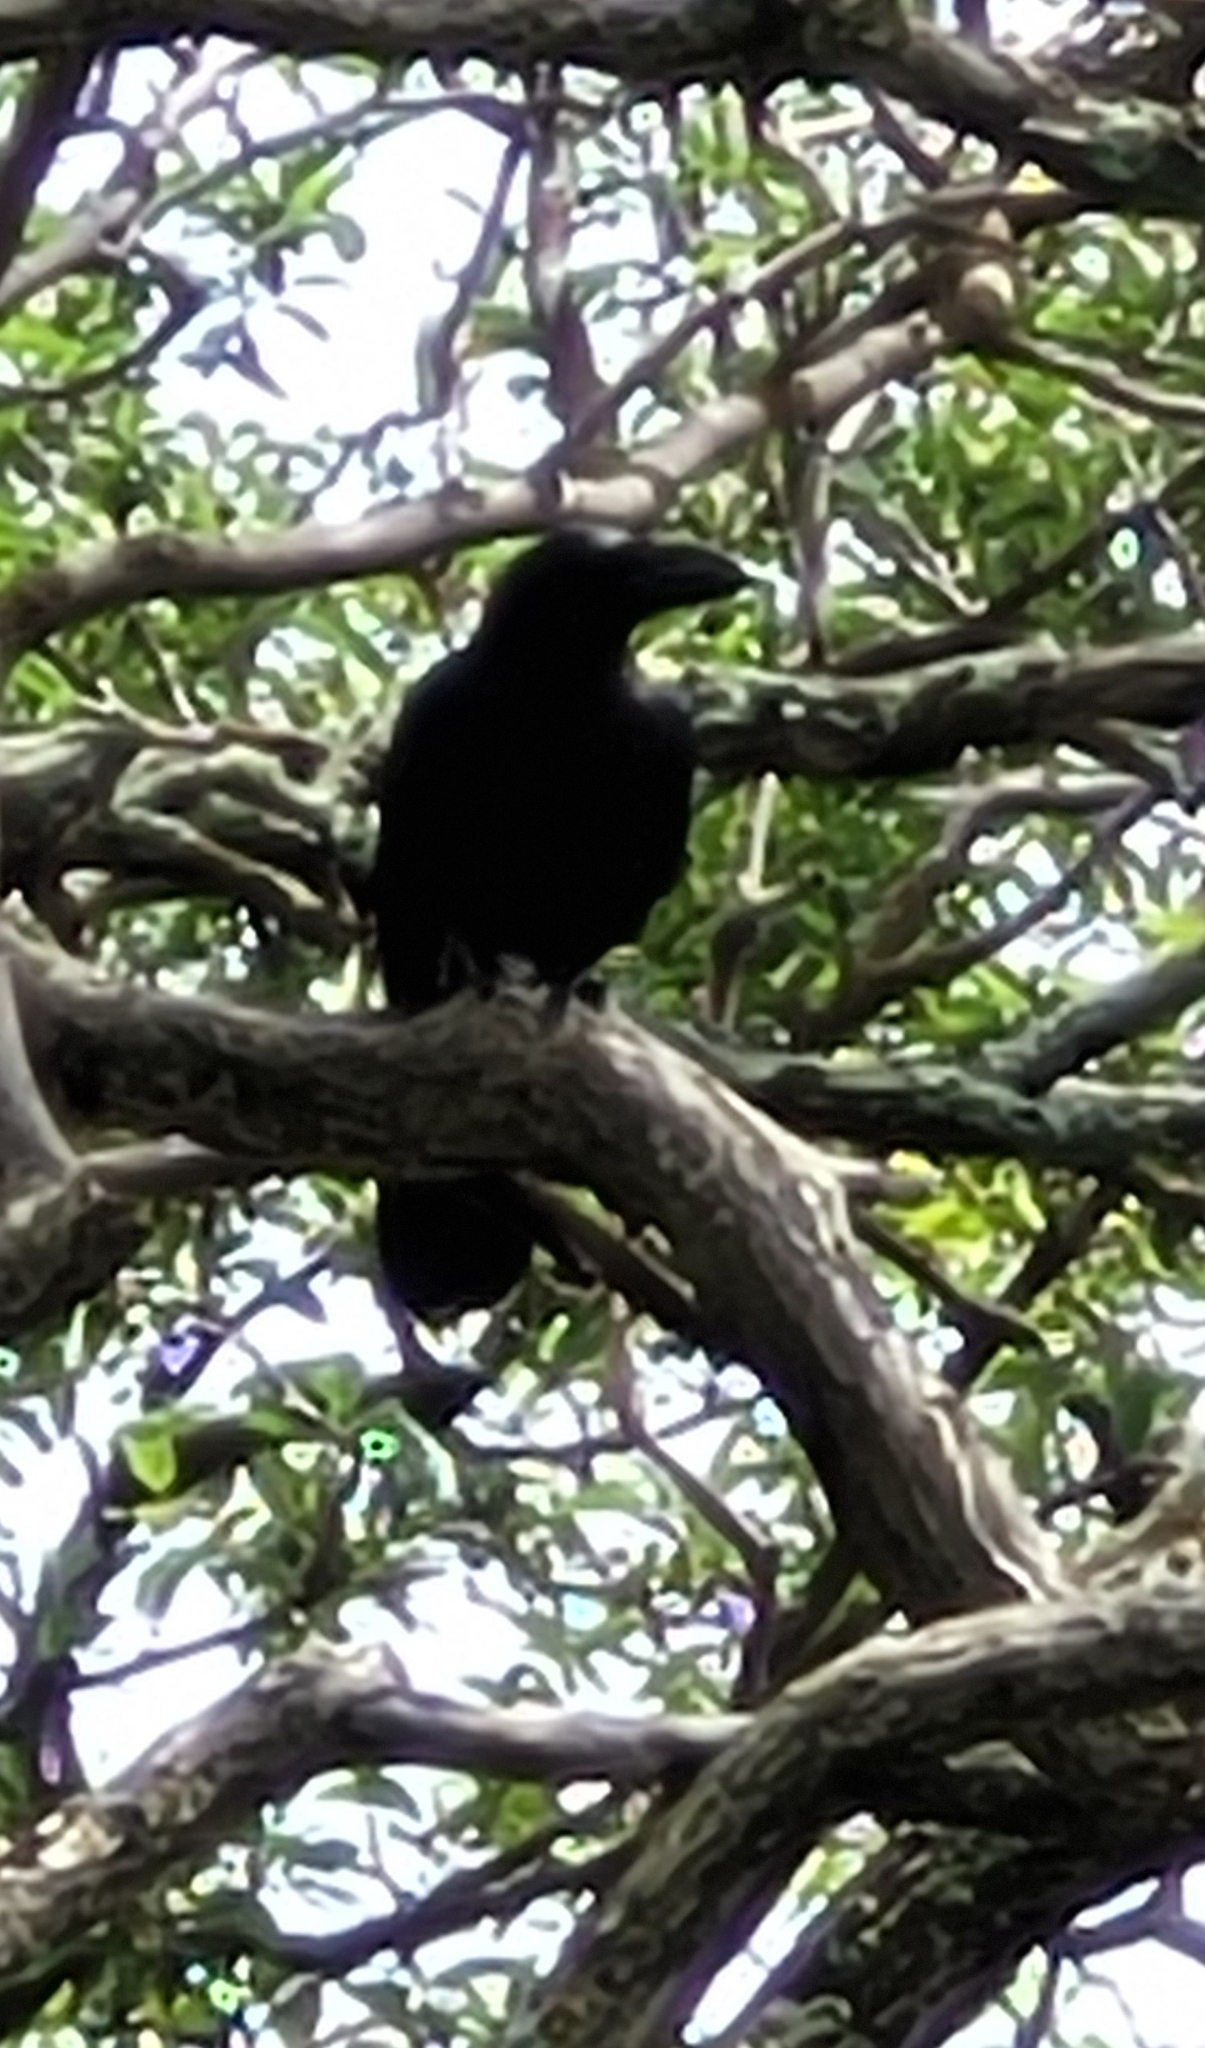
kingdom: Animalia
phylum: Chordata
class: Aves
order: Passeriformes
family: Corvidae
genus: Corvus
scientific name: Corvus macrorhynchos
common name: Large-billed crow
